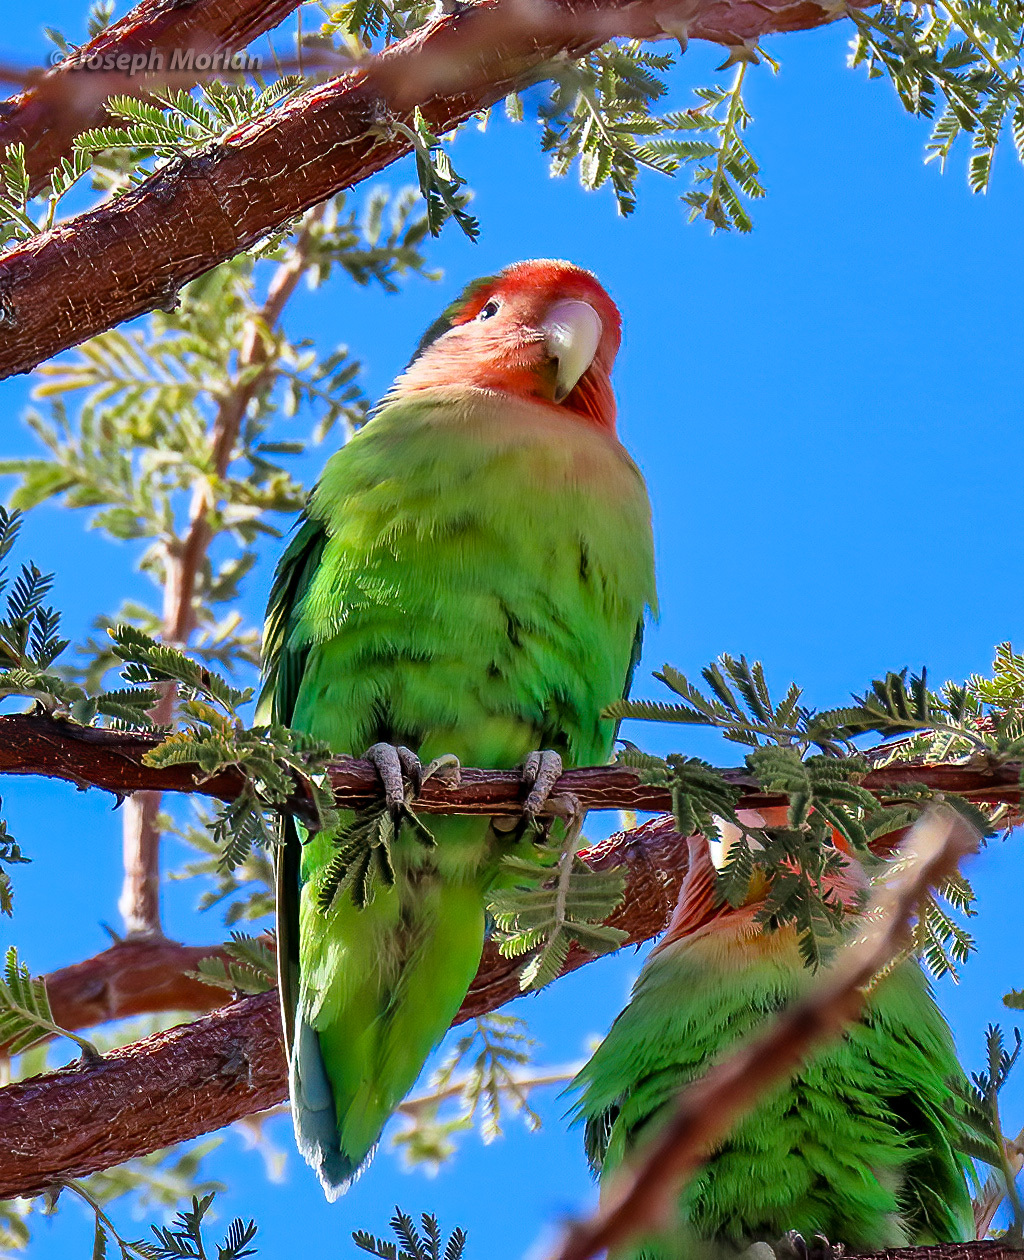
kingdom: Animalia
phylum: Chordata
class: Aves
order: Psittaciformes
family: Psittacidae
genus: Agapornis
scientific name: Agapornis roseicollis
